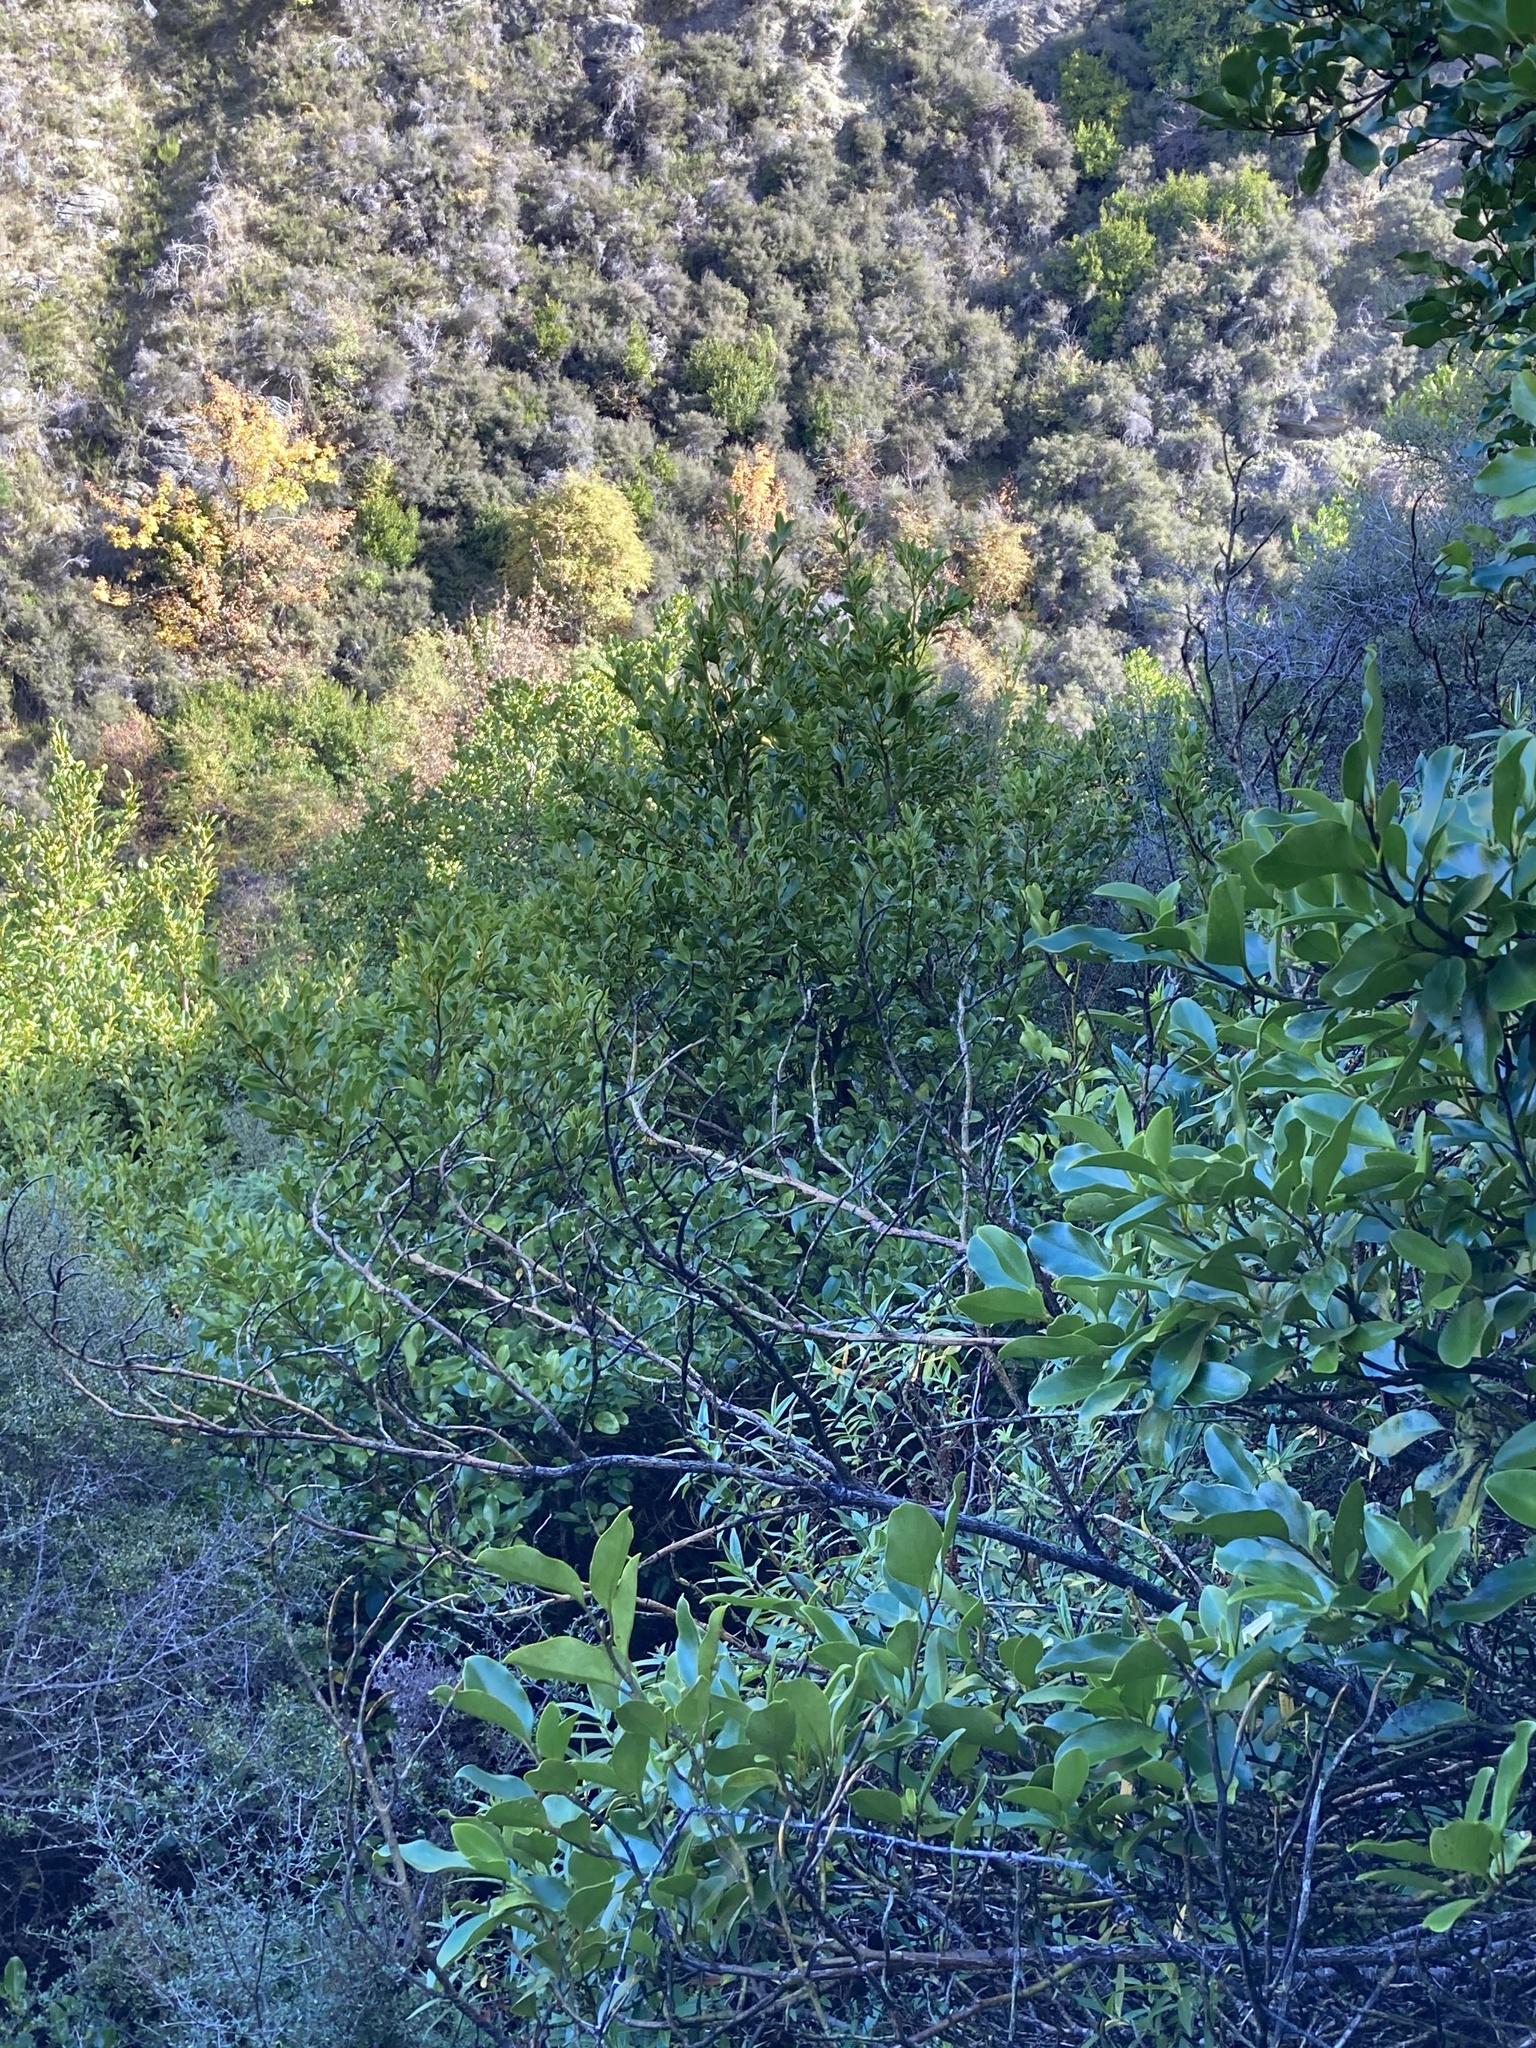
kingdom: Plantae
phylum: Tracheophyta
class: Magnoliopsida
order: Apiales
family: Griseliniaceae
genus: Griselinia
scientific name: Griselinia littoralis
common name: New zealand broadleaf
